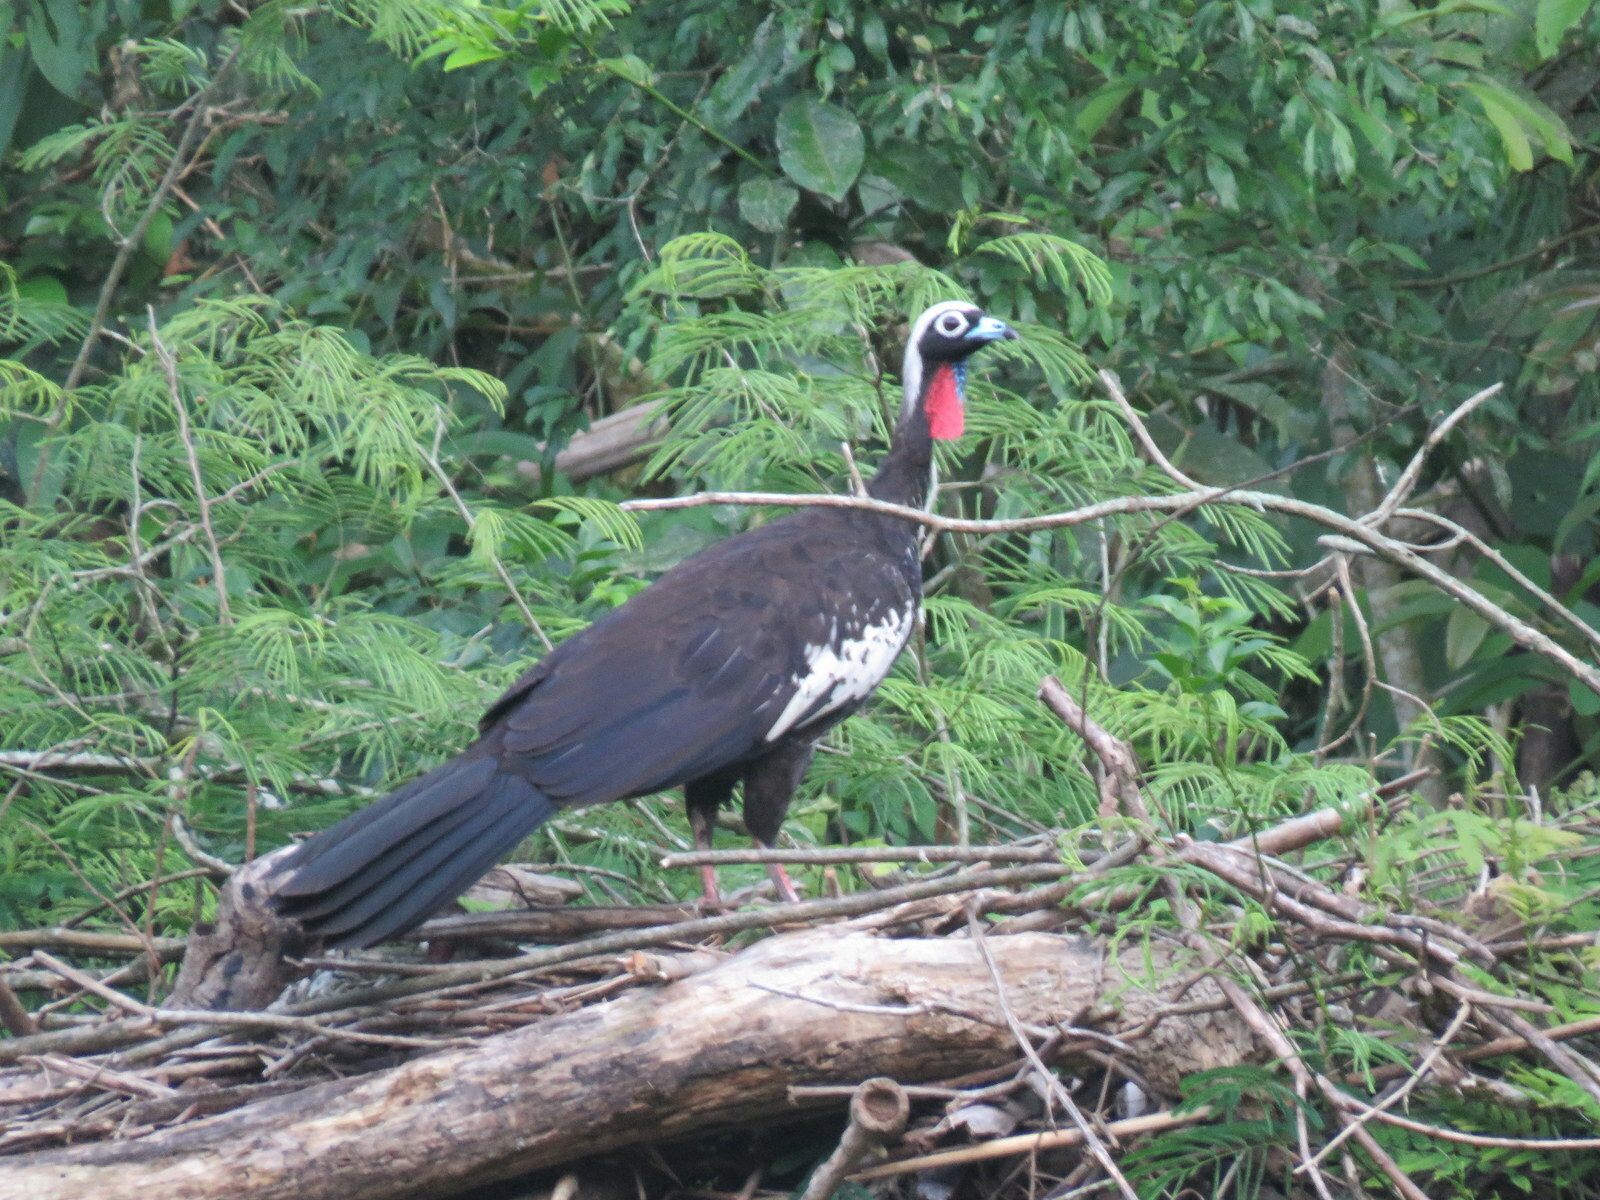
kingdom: Animalia
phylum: Chordata
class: Aves
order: Galliformes
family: Cracidae
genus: Pipile
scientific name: Pipile jacutinga
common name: Black-fronted piping-guan
